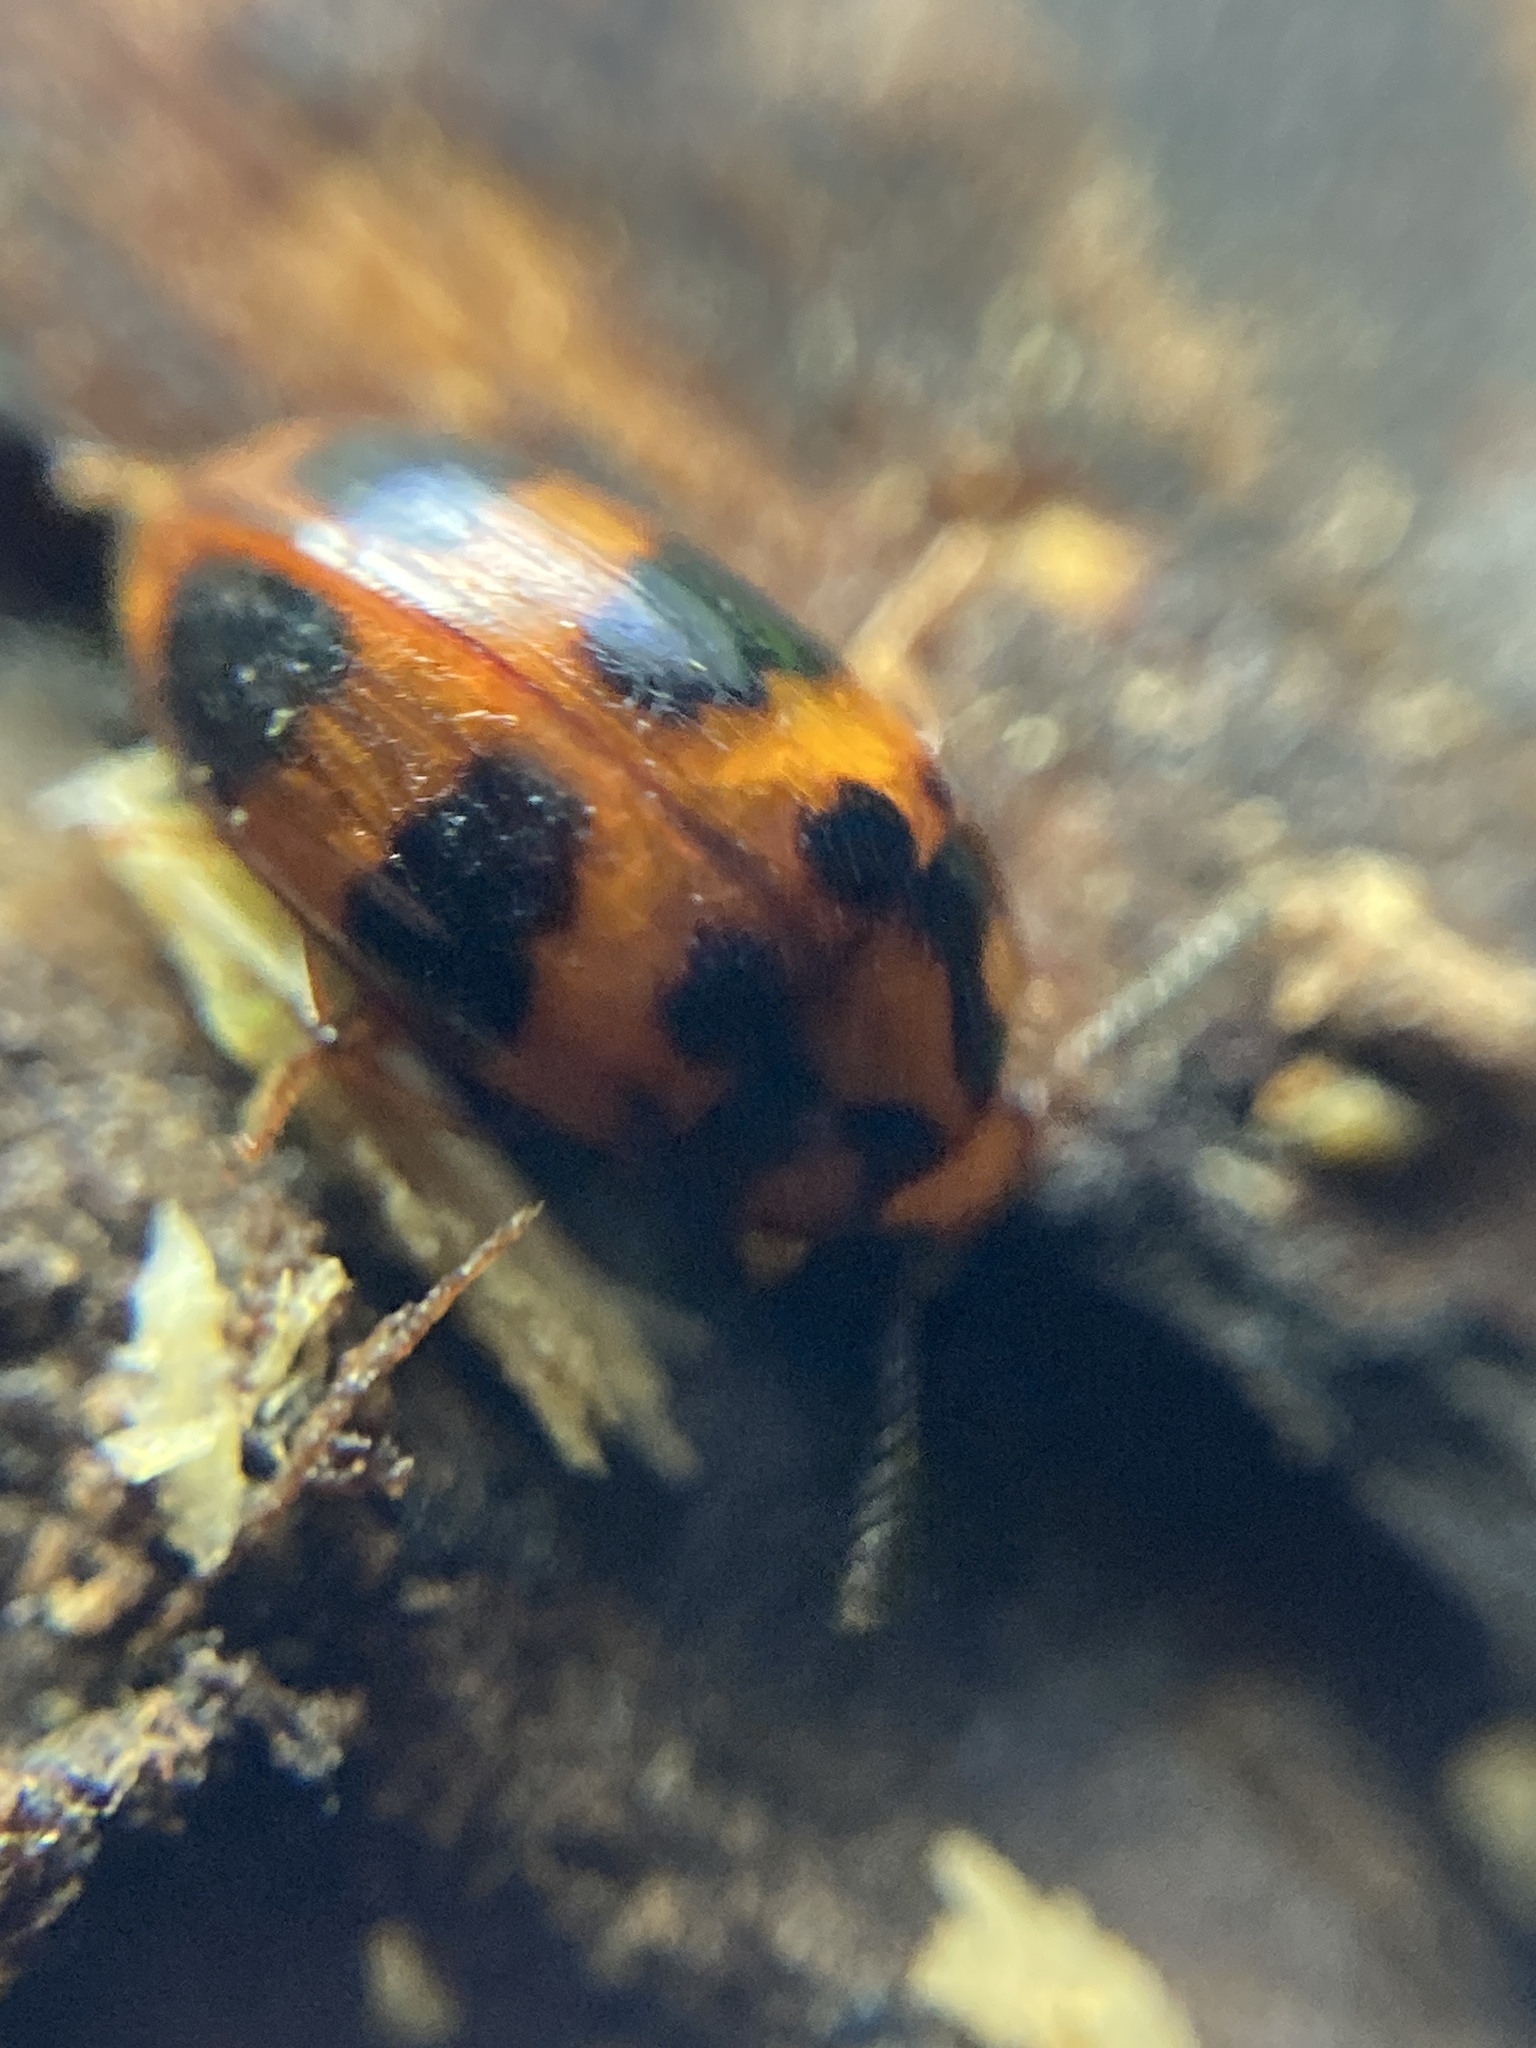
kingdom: Animalia
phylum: Arthropoda
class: Insecta
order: Coleoptera
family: Tenebrionidae
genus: Spiloscapha
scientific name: Spiloscapha
